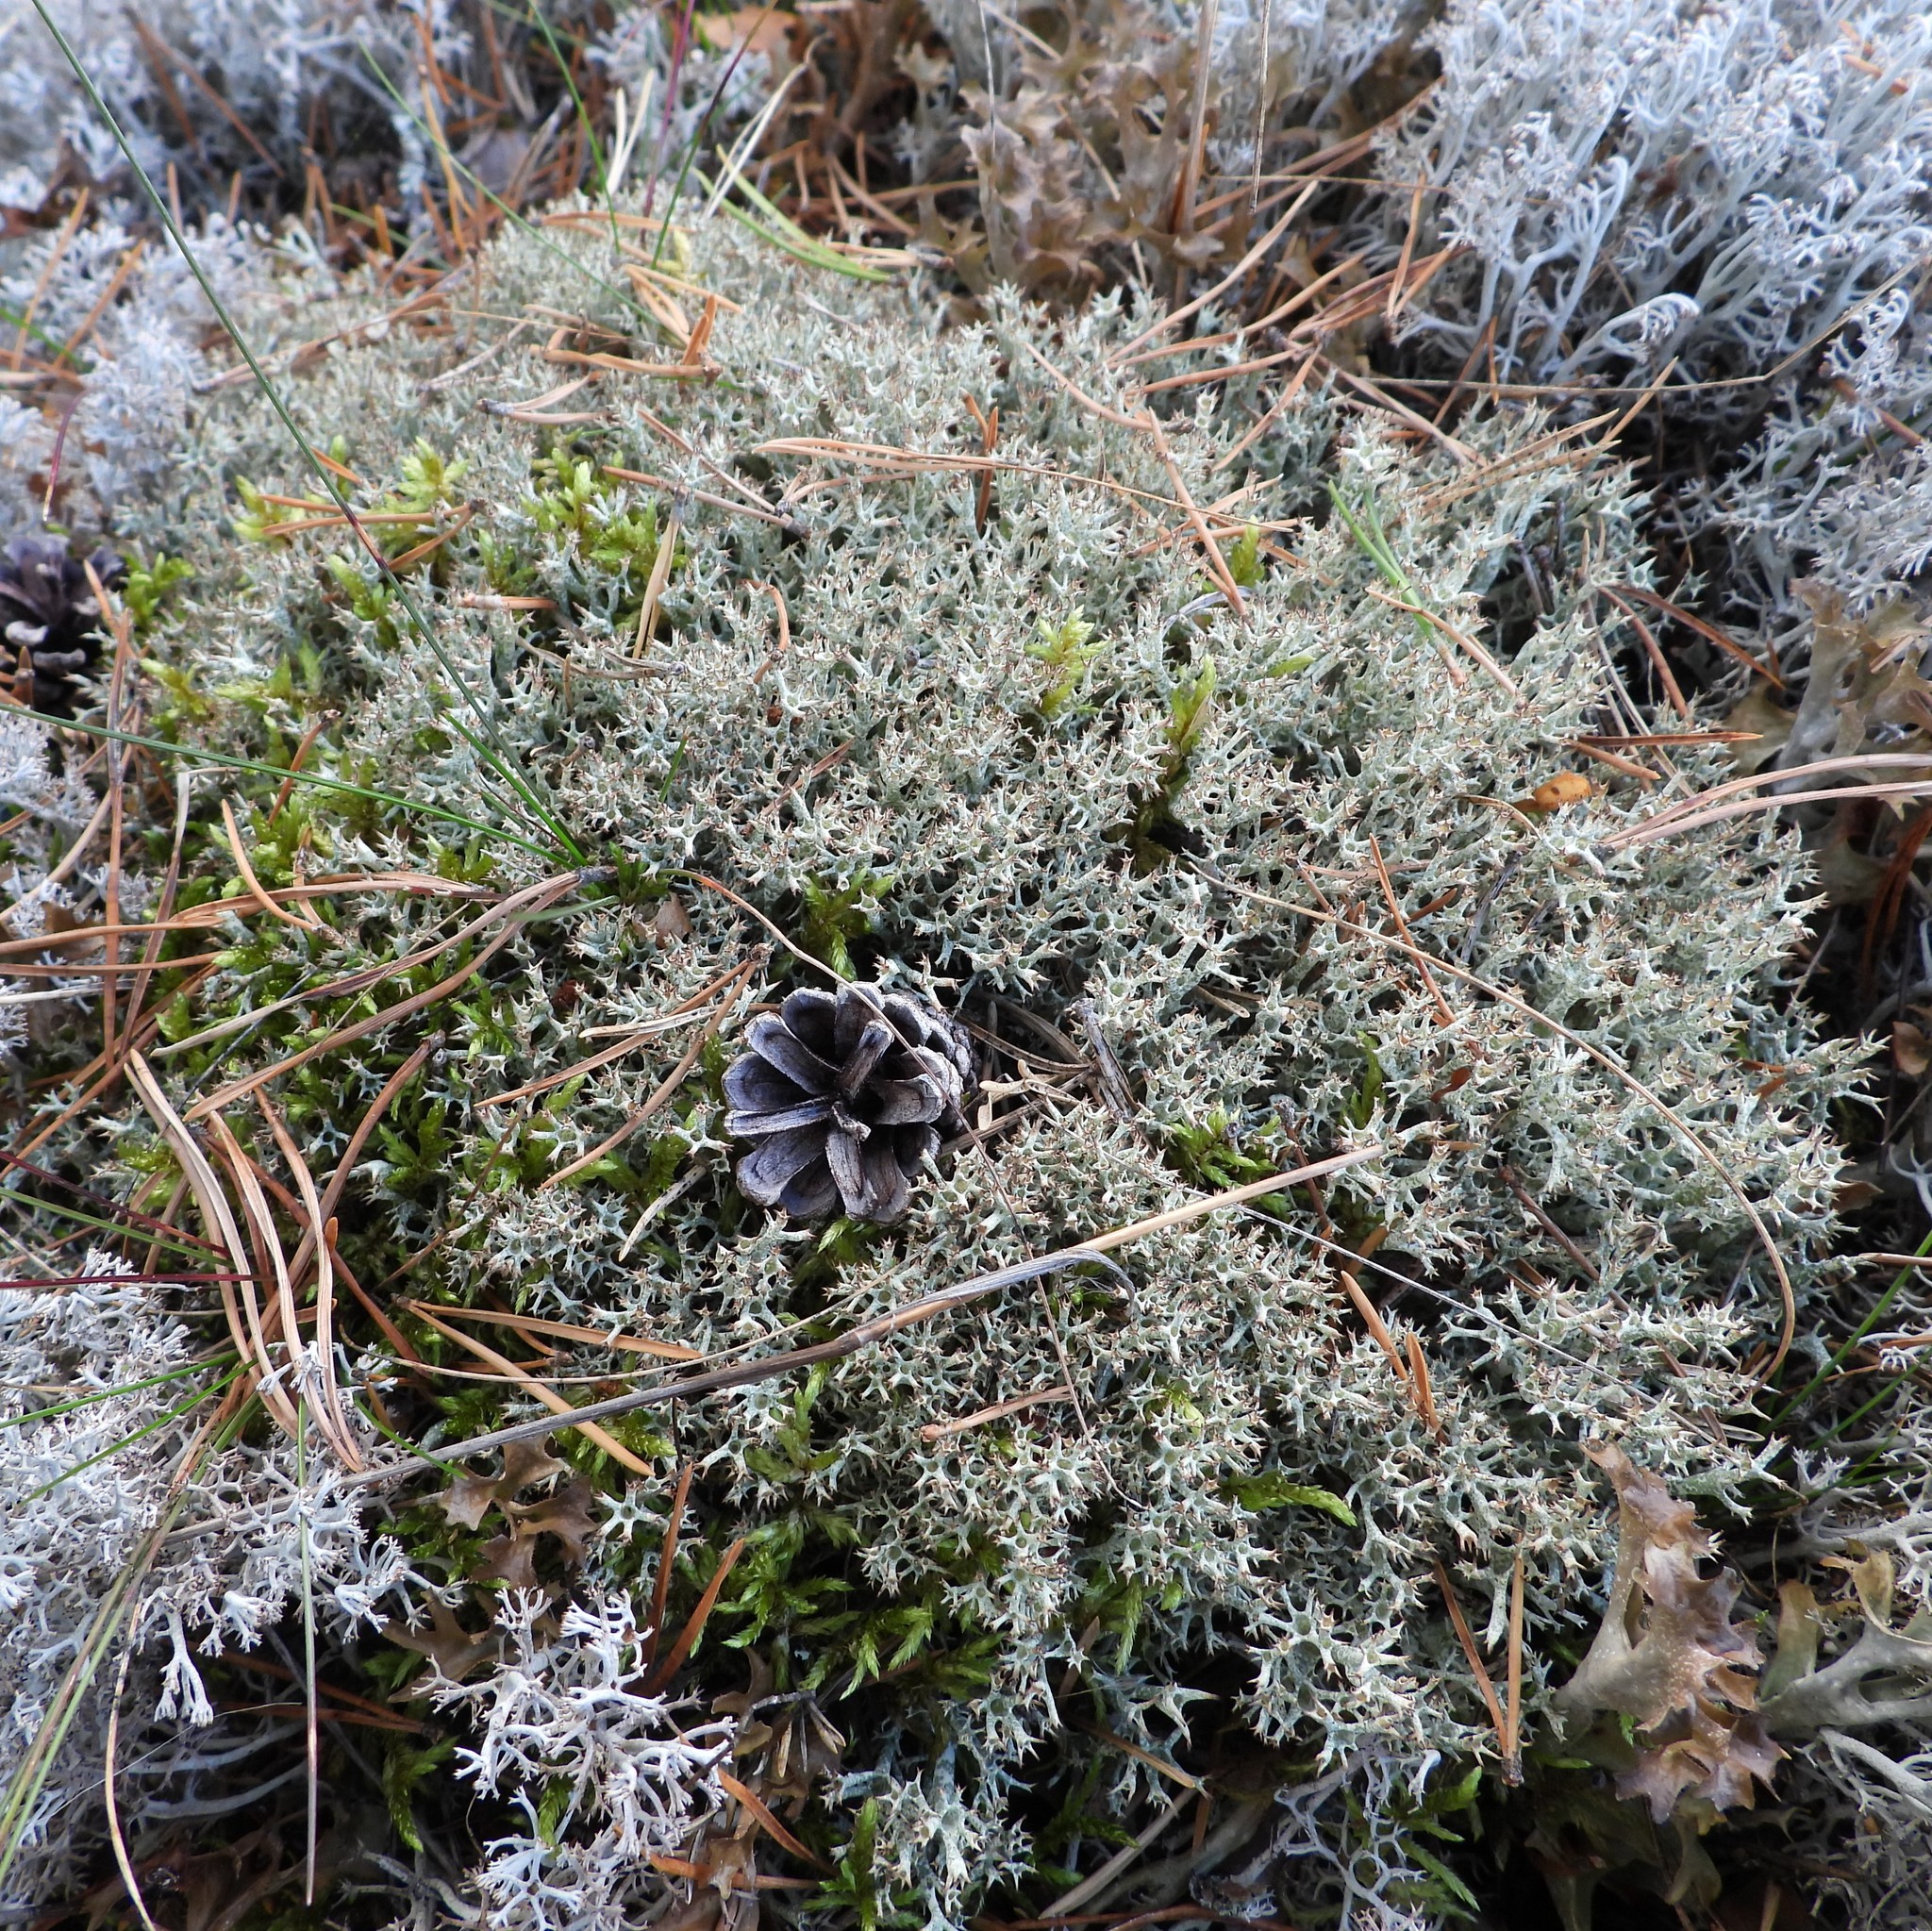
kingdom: Fungi
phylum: Ascomycota
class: Lecanoromycetes
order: Lecanorales
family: Cladoniaceae
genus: Cladonia
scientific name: Cladonia uncialis
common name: Thorn lichen
